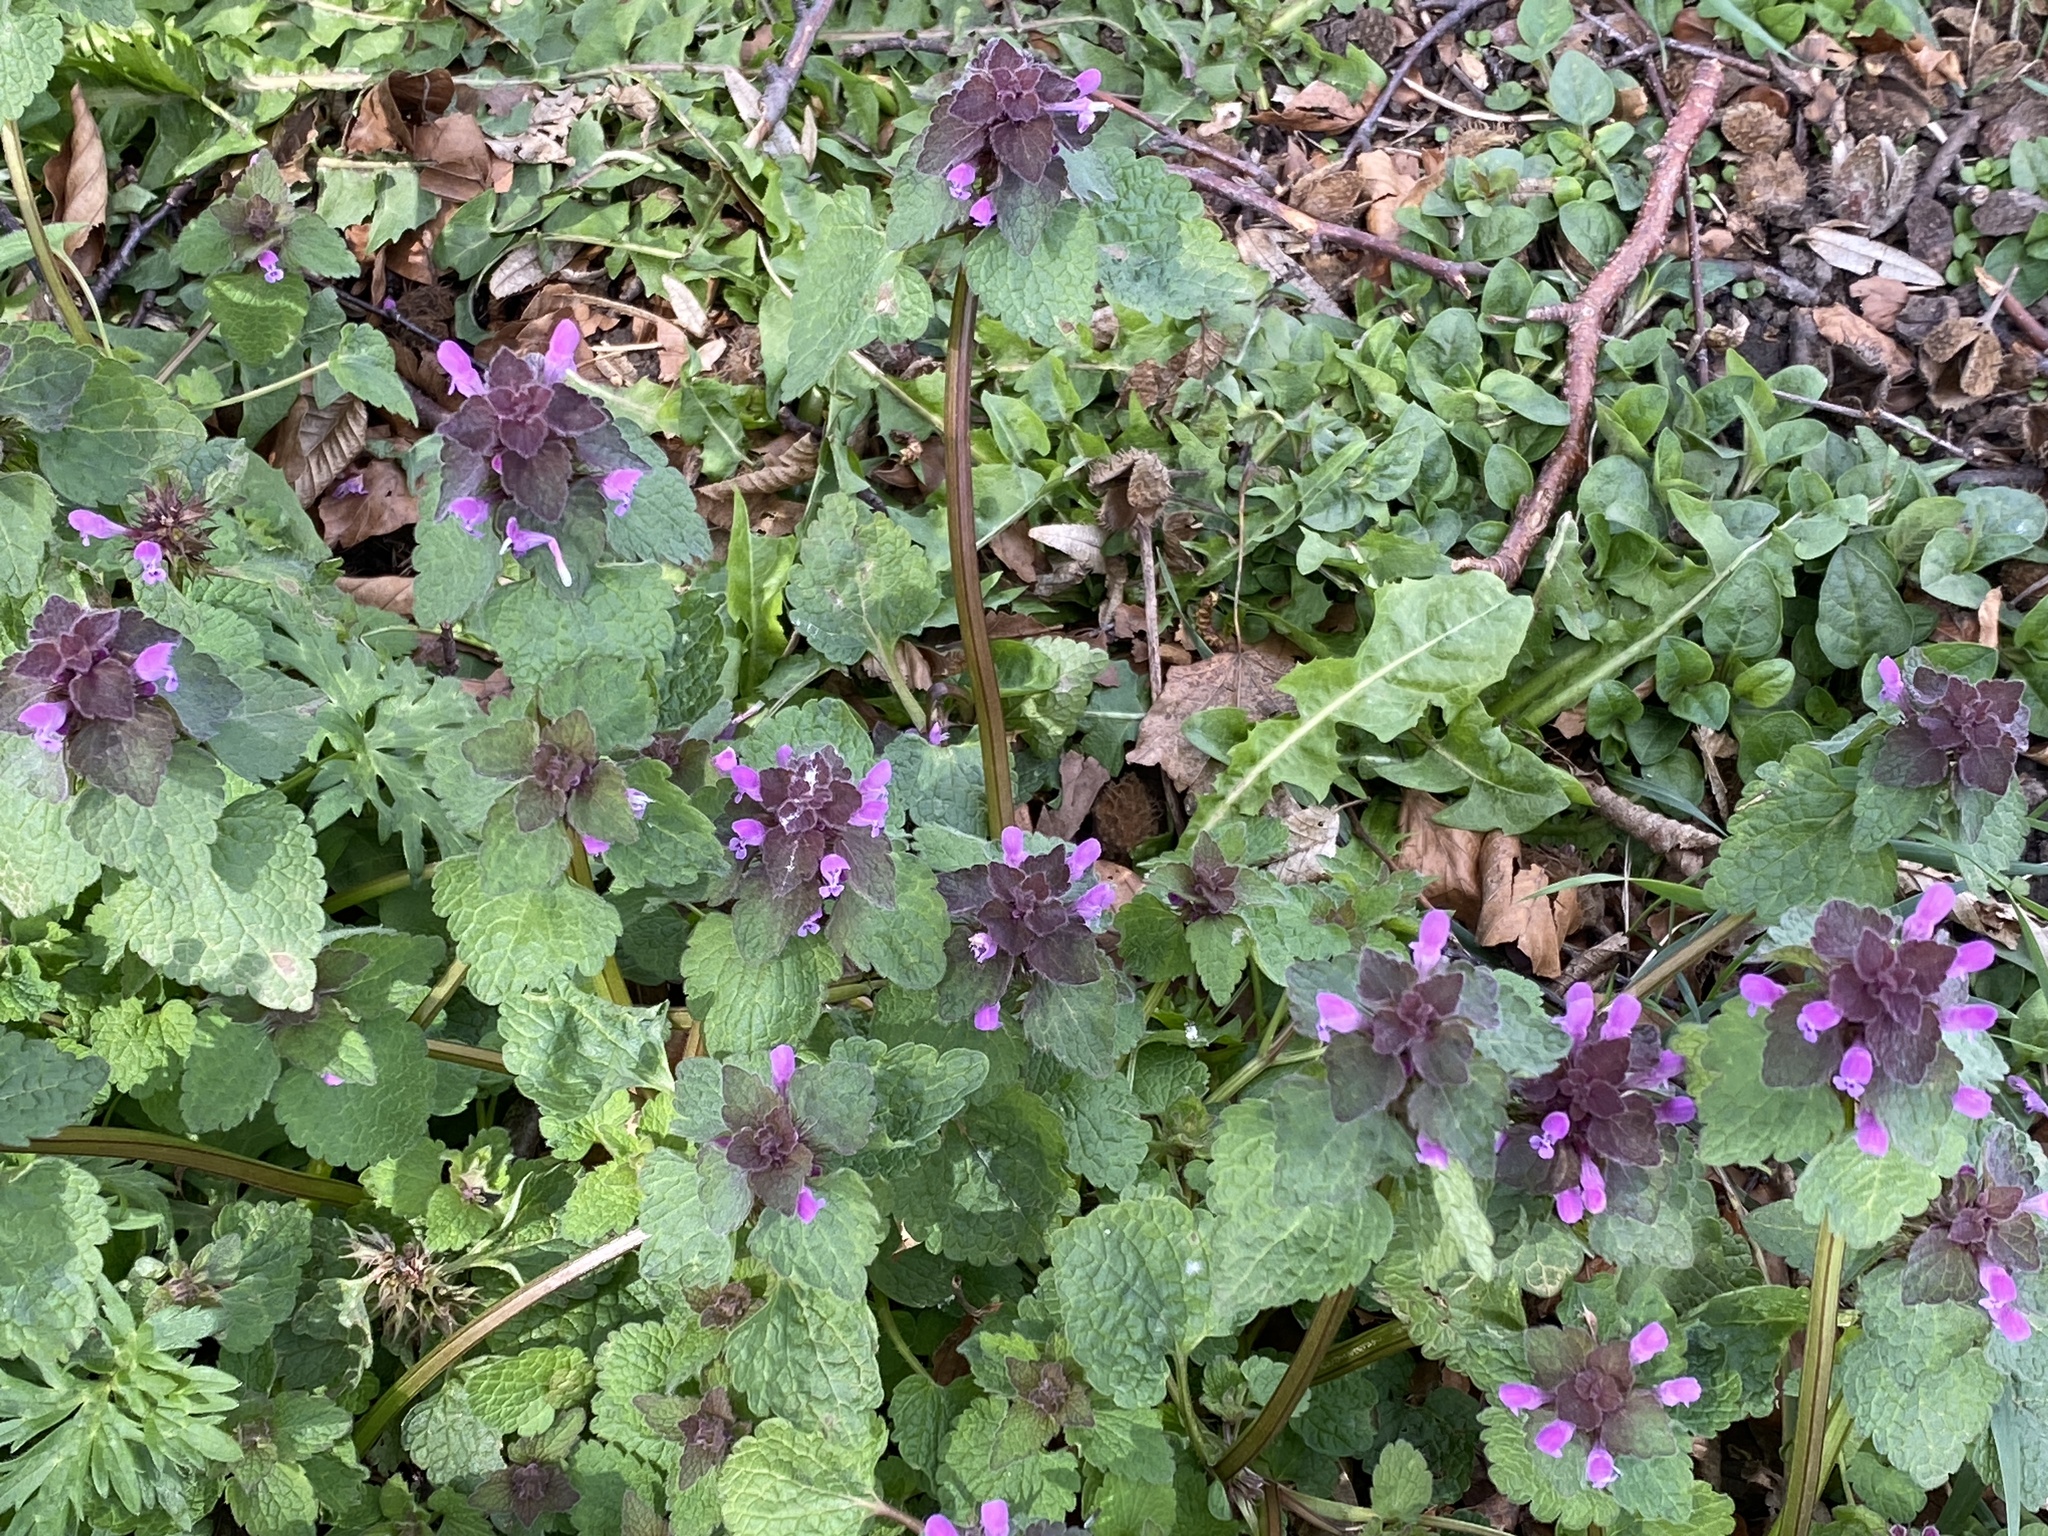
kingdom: Plantae
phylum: Tracheophyta
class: Magnoliopsida
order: Lamiales
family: Lamiaceae
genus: Lamium
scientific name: Lamium purpureum
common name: Red dead-nettle
